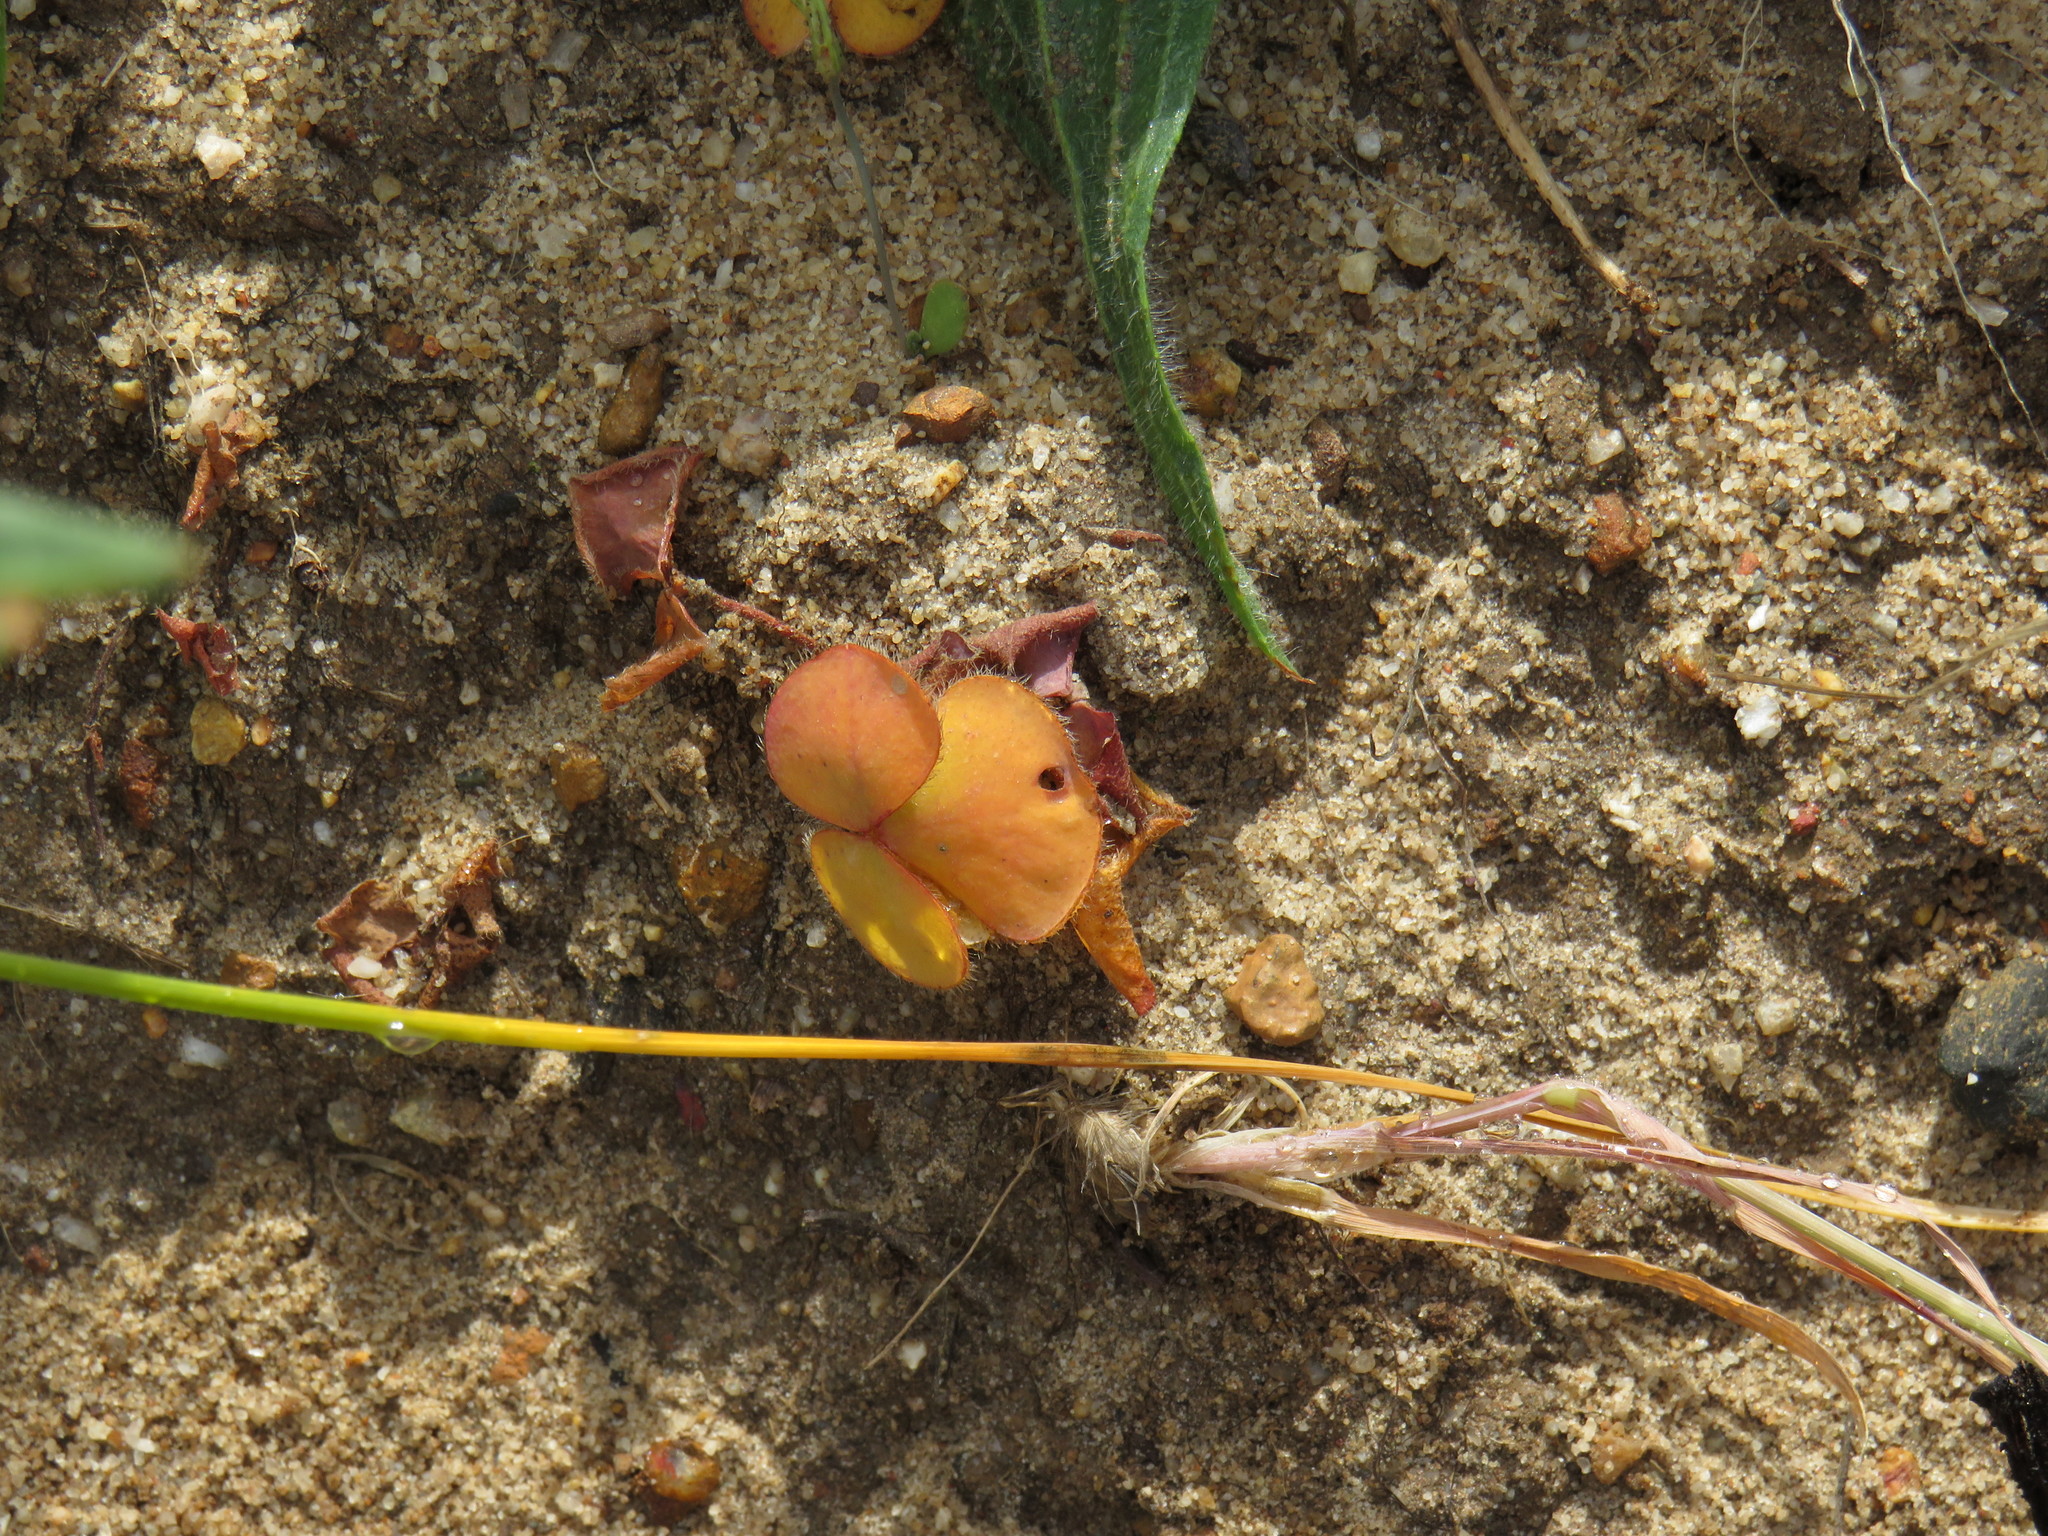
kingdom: Plantae
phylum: Tracheophyta
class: Magnoliopsida
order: Oxalidales
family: Oxalidaceae
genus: Oxalis
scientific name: Oxalis purpurea
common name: Purple woodsorrel
